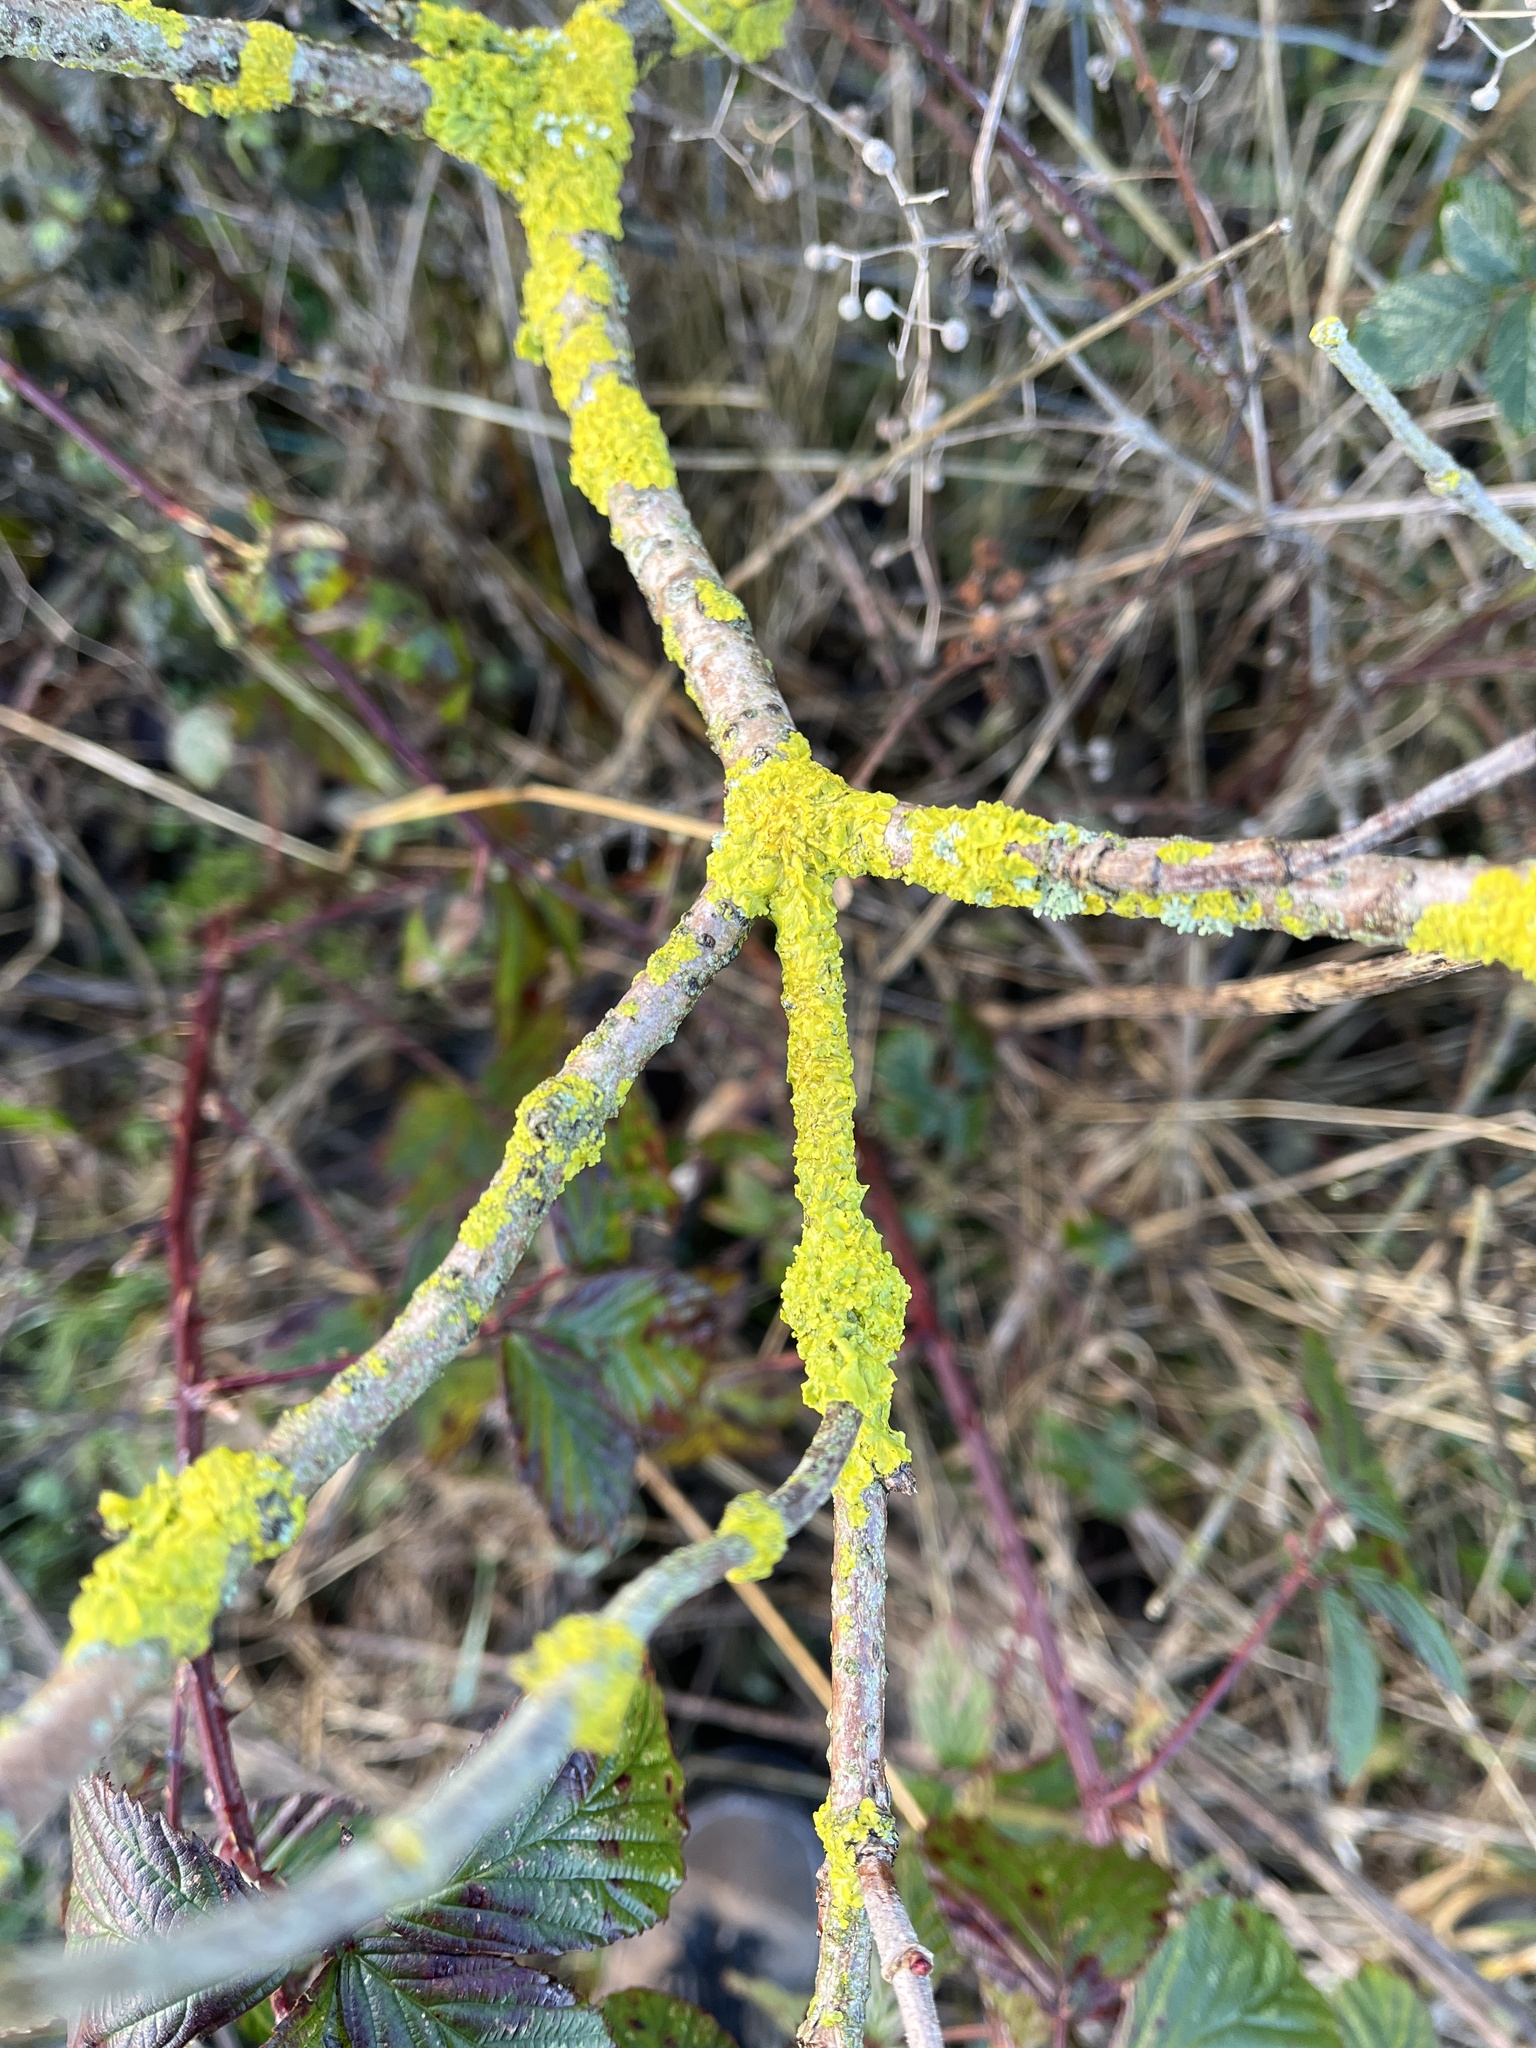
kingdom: Fungi
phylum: Ascomycota
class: Lecanoromycetes
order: Teloschistales
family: Teloschistaceae
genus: Xanthoria
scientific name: Xanthoria parietina
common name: Common orange lichen
